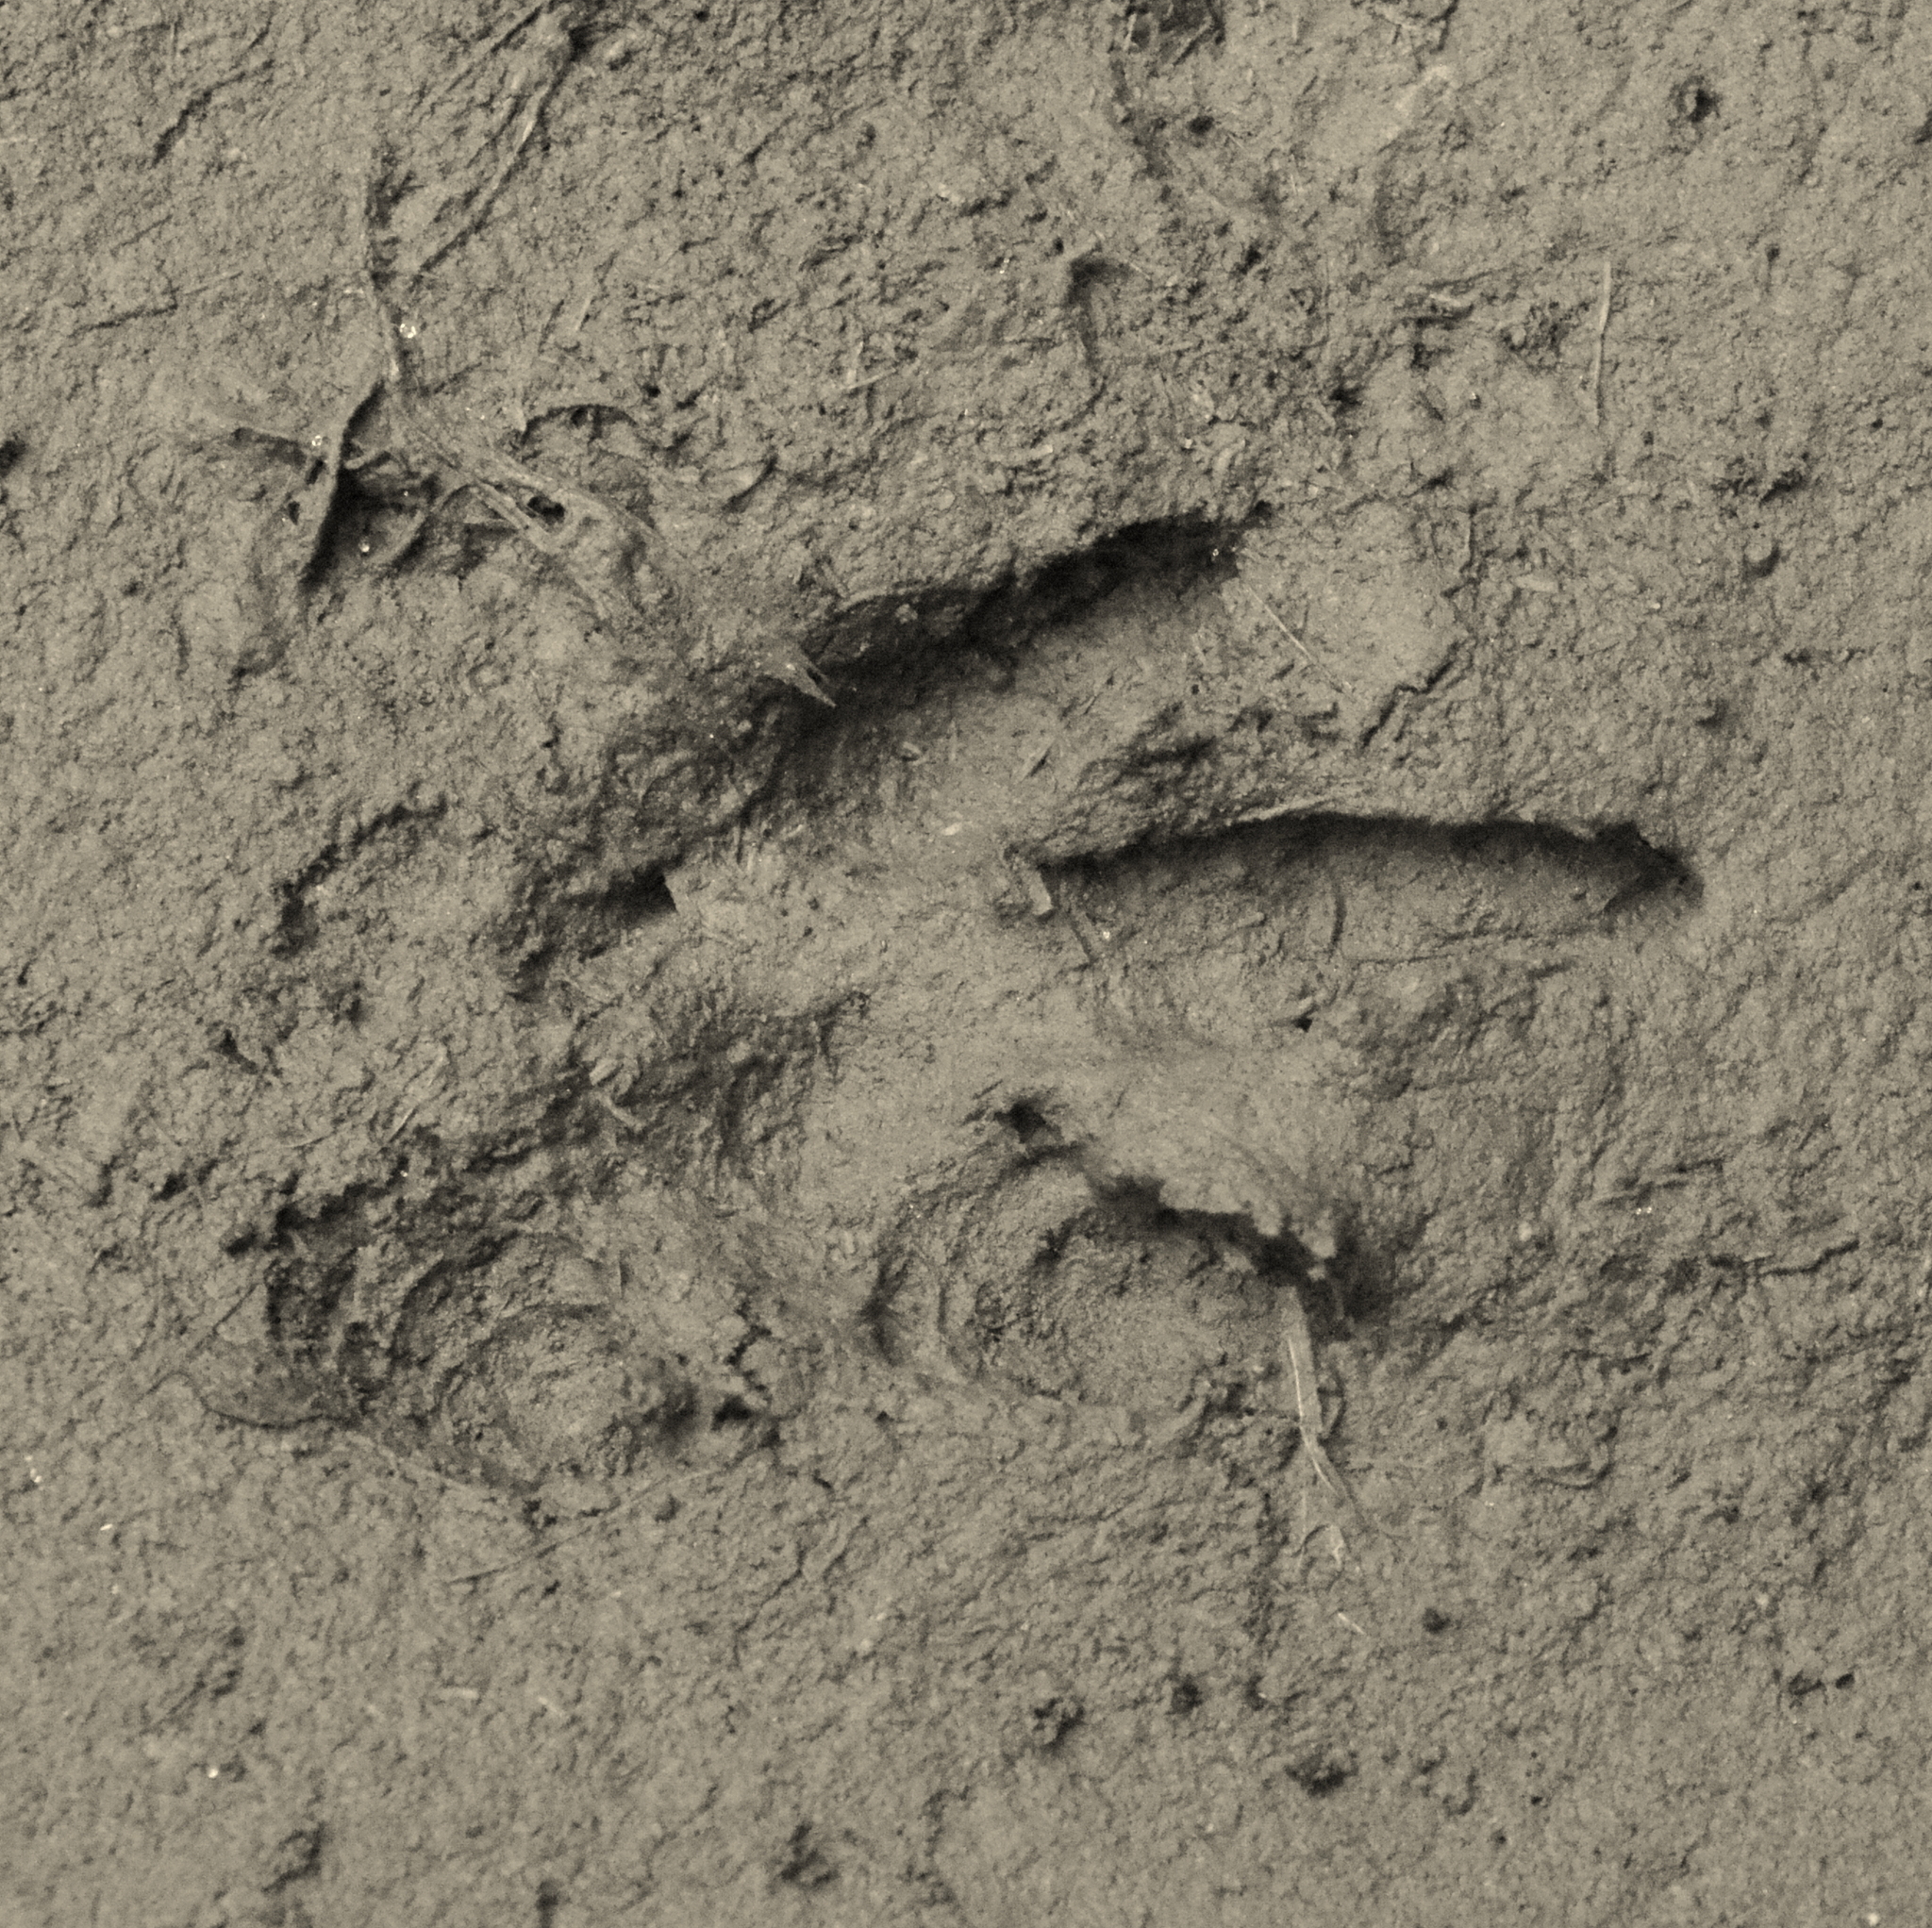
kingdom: Animalia
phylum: Chordata
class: Mammalia
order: Rodentia
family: Dasyproctidae
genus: Dasyprocta
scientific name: Dasyprocta azarae
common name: Azara's agouti
